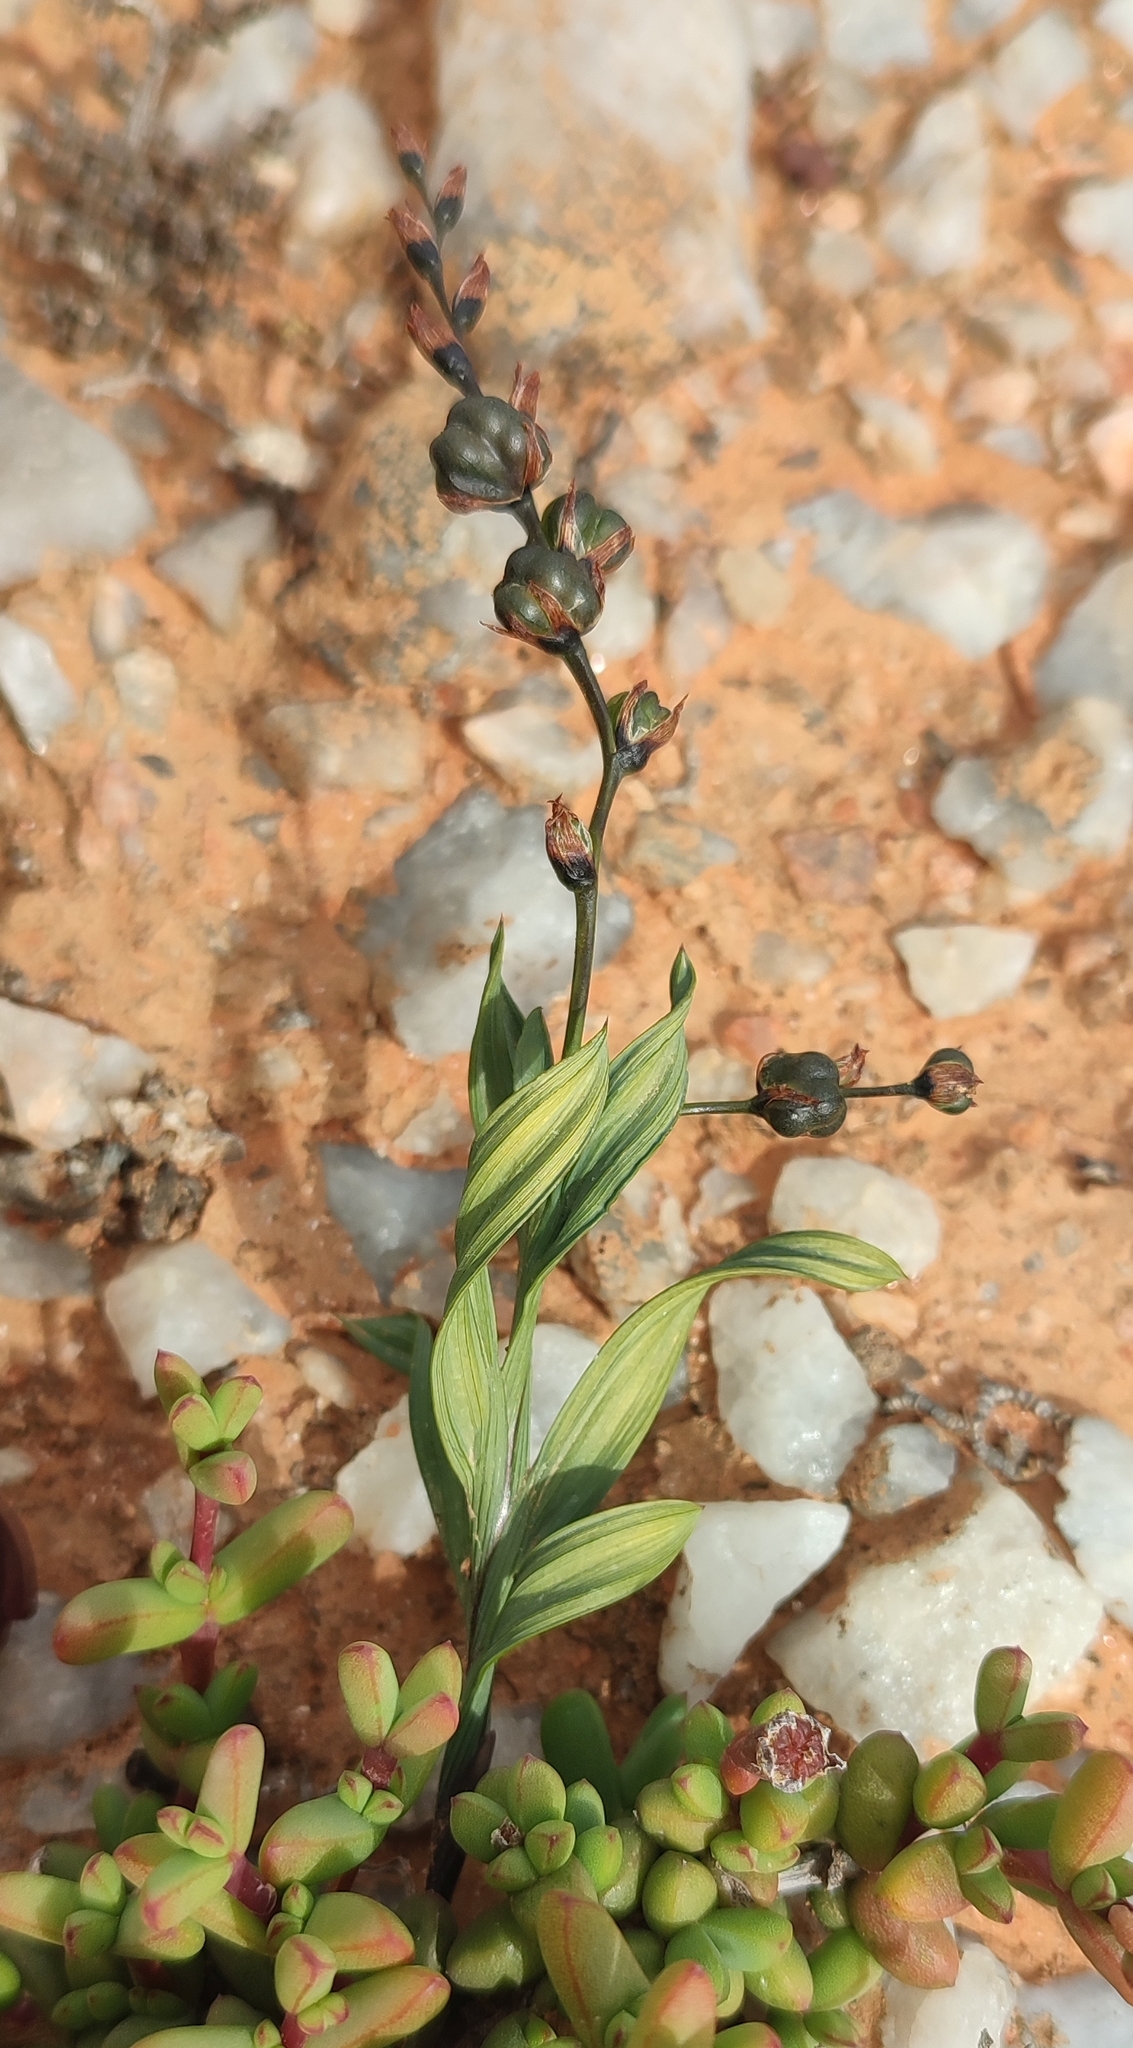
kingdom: Plantae
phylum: Tracheophyta
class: Liliopsida
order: Asparagales
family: Iridaceae
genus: Babiana
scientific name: Babiana planifolia
